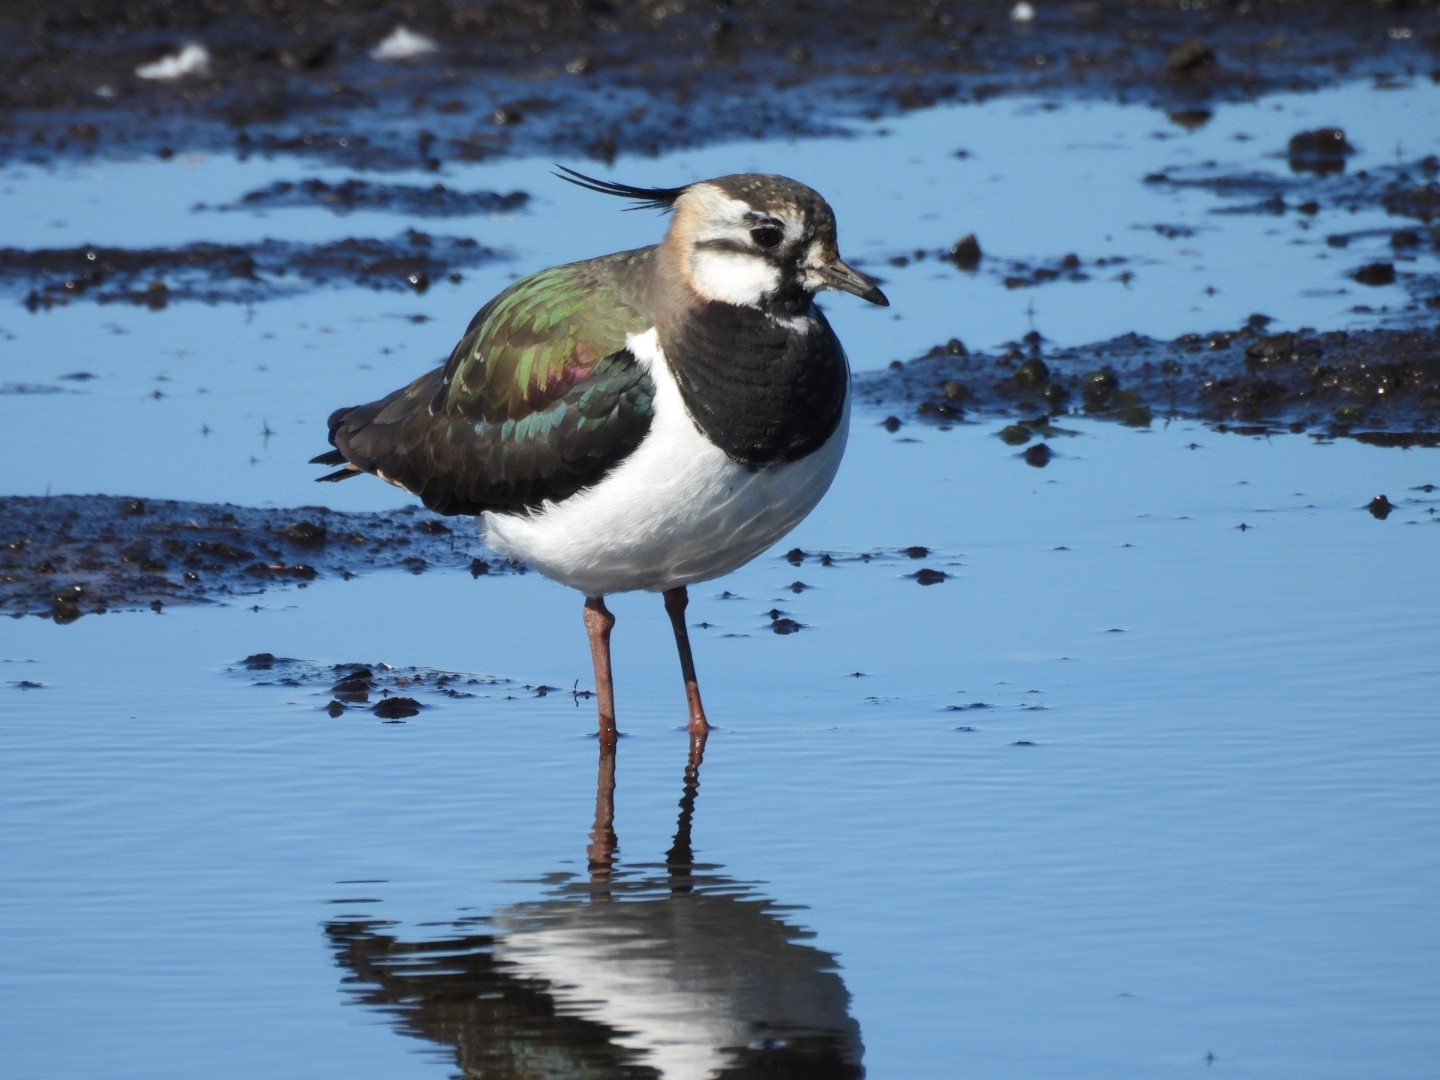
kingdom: Animalia
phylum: Chordata
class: Aves
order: Charadriiformes
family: Charadriidae
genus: Vanellus
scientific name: Vanellus vanellus
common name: Northern lapwing
